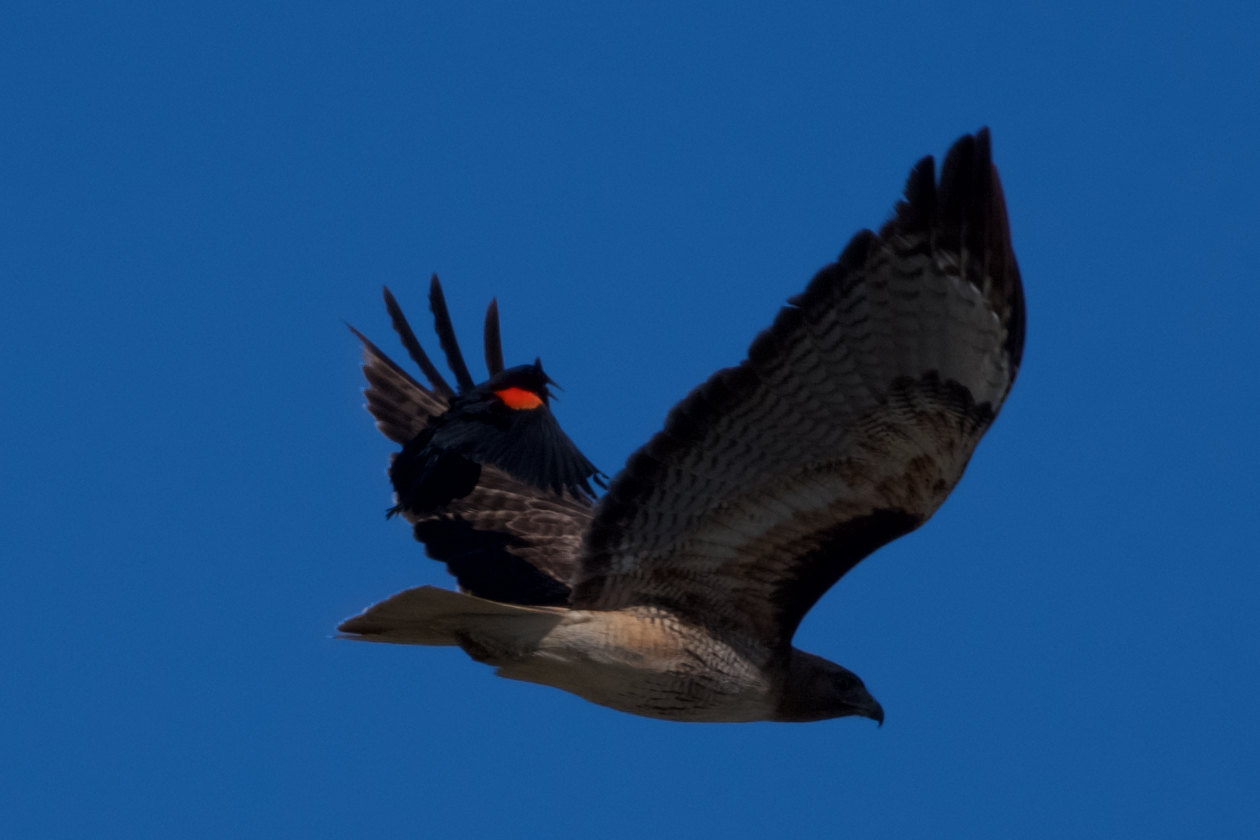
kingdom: Animalia
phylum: Chordata
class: Aves
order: Accipitriformes
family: Accipitridae
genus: Buteo
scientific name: Buteo jamaicensis
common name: Red-tailed hawk
